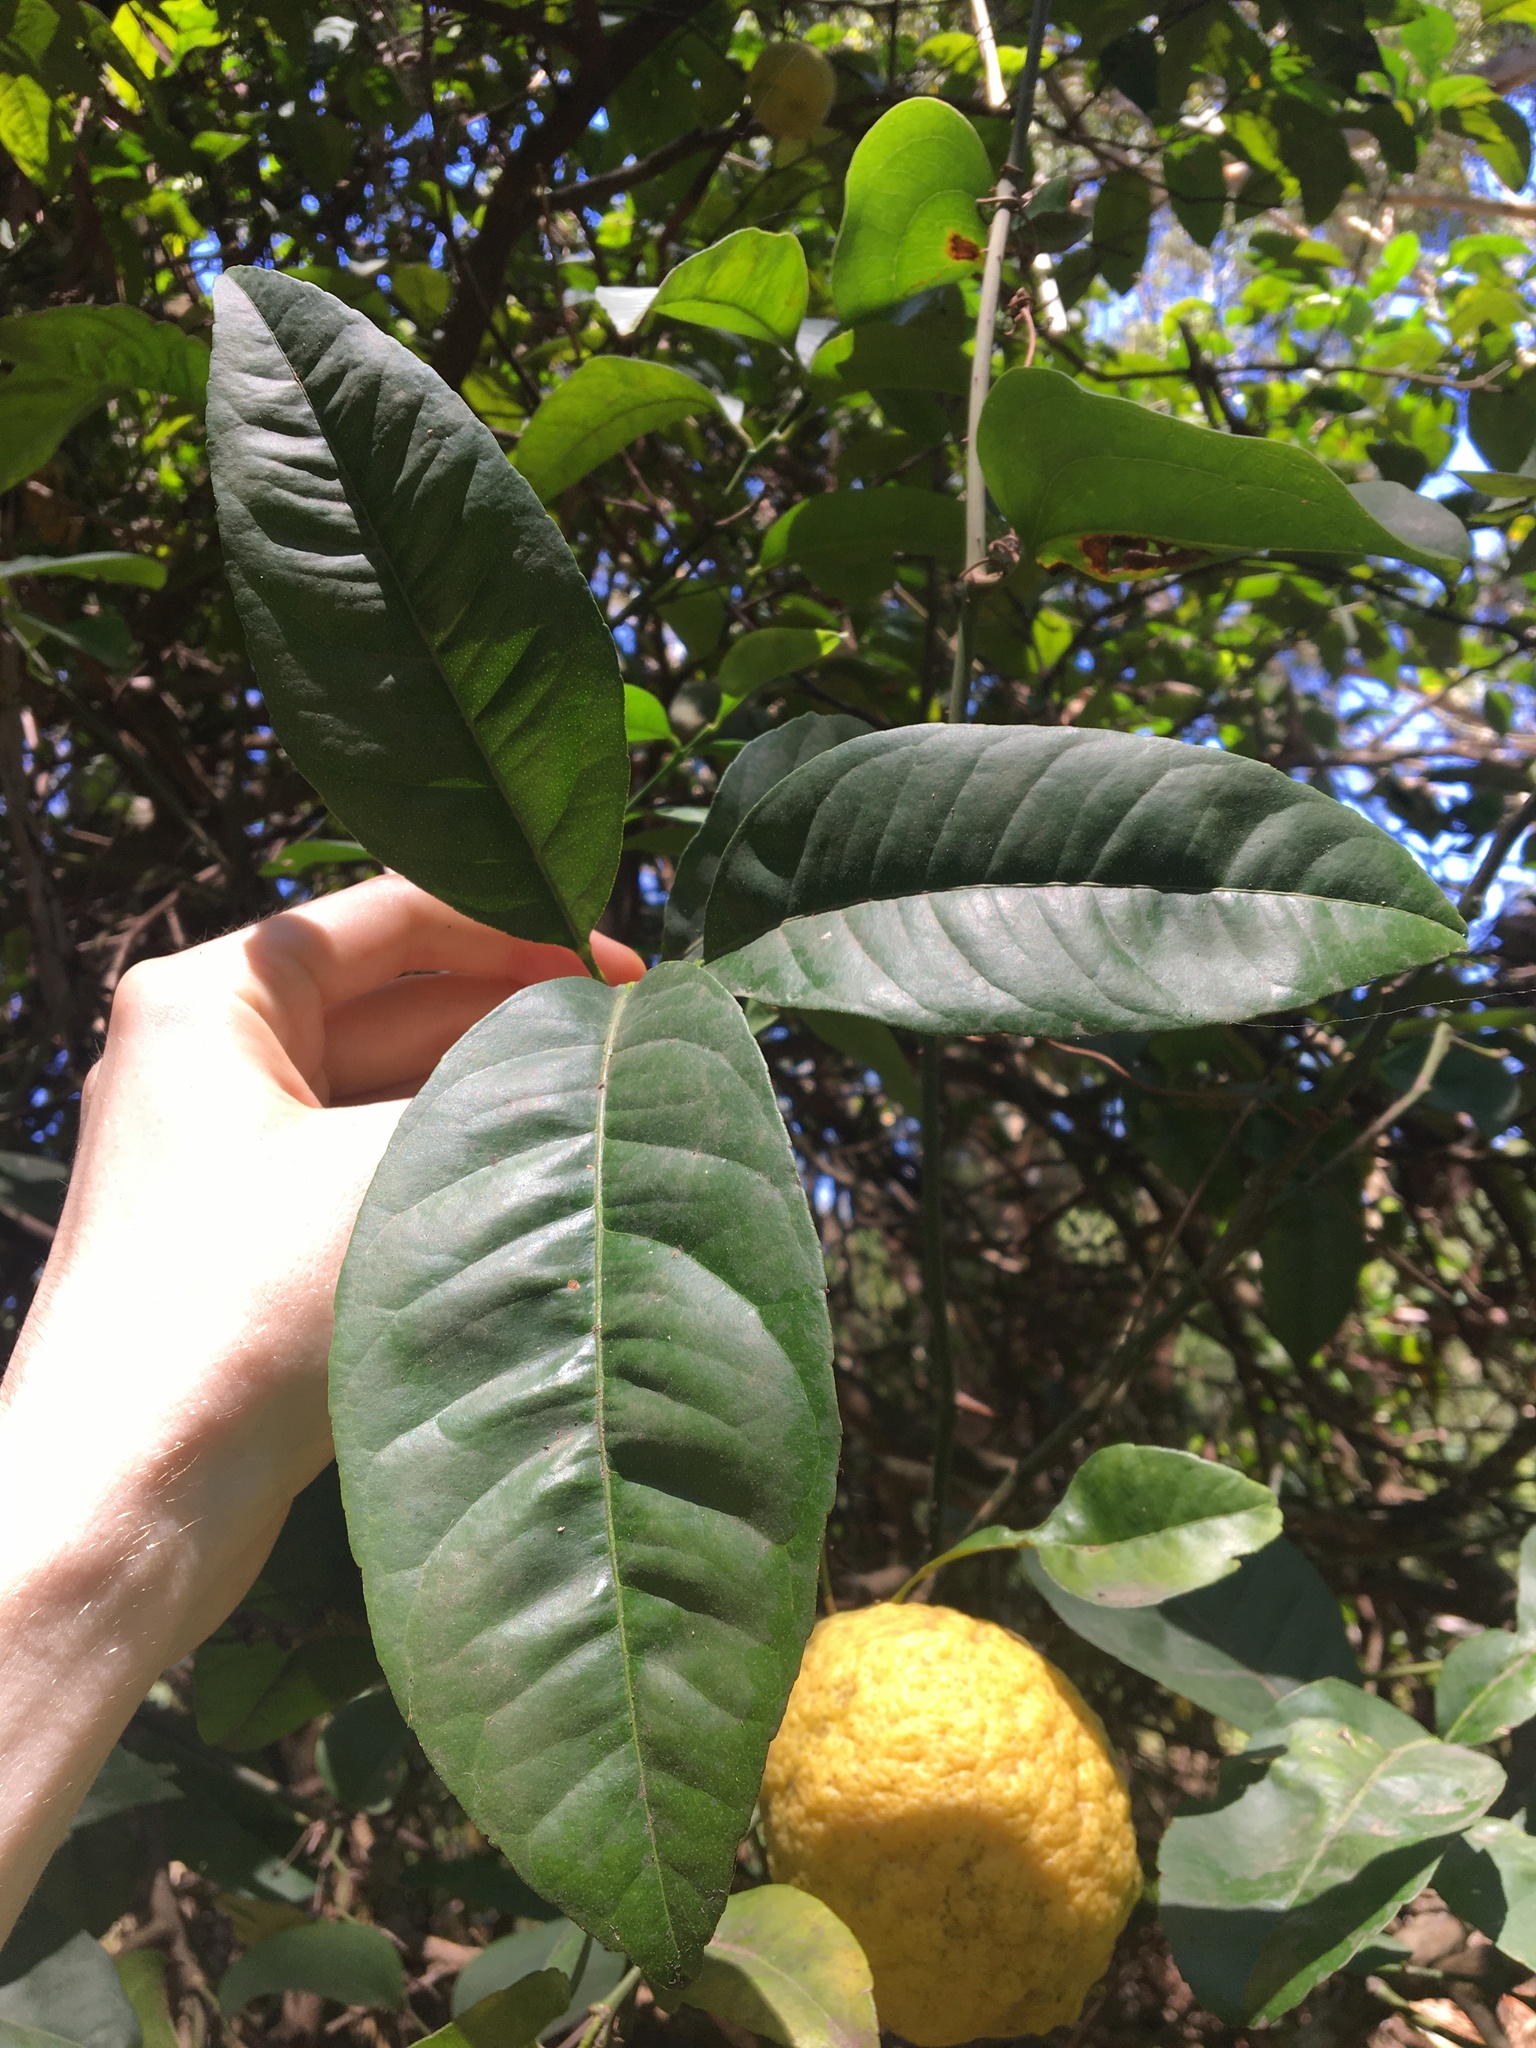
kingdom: Plantae
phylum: Tracheophyta
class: Magnoliopsida
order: Sapindales
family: Rutaceae
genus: Citrus
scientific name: Citrus taitensis
